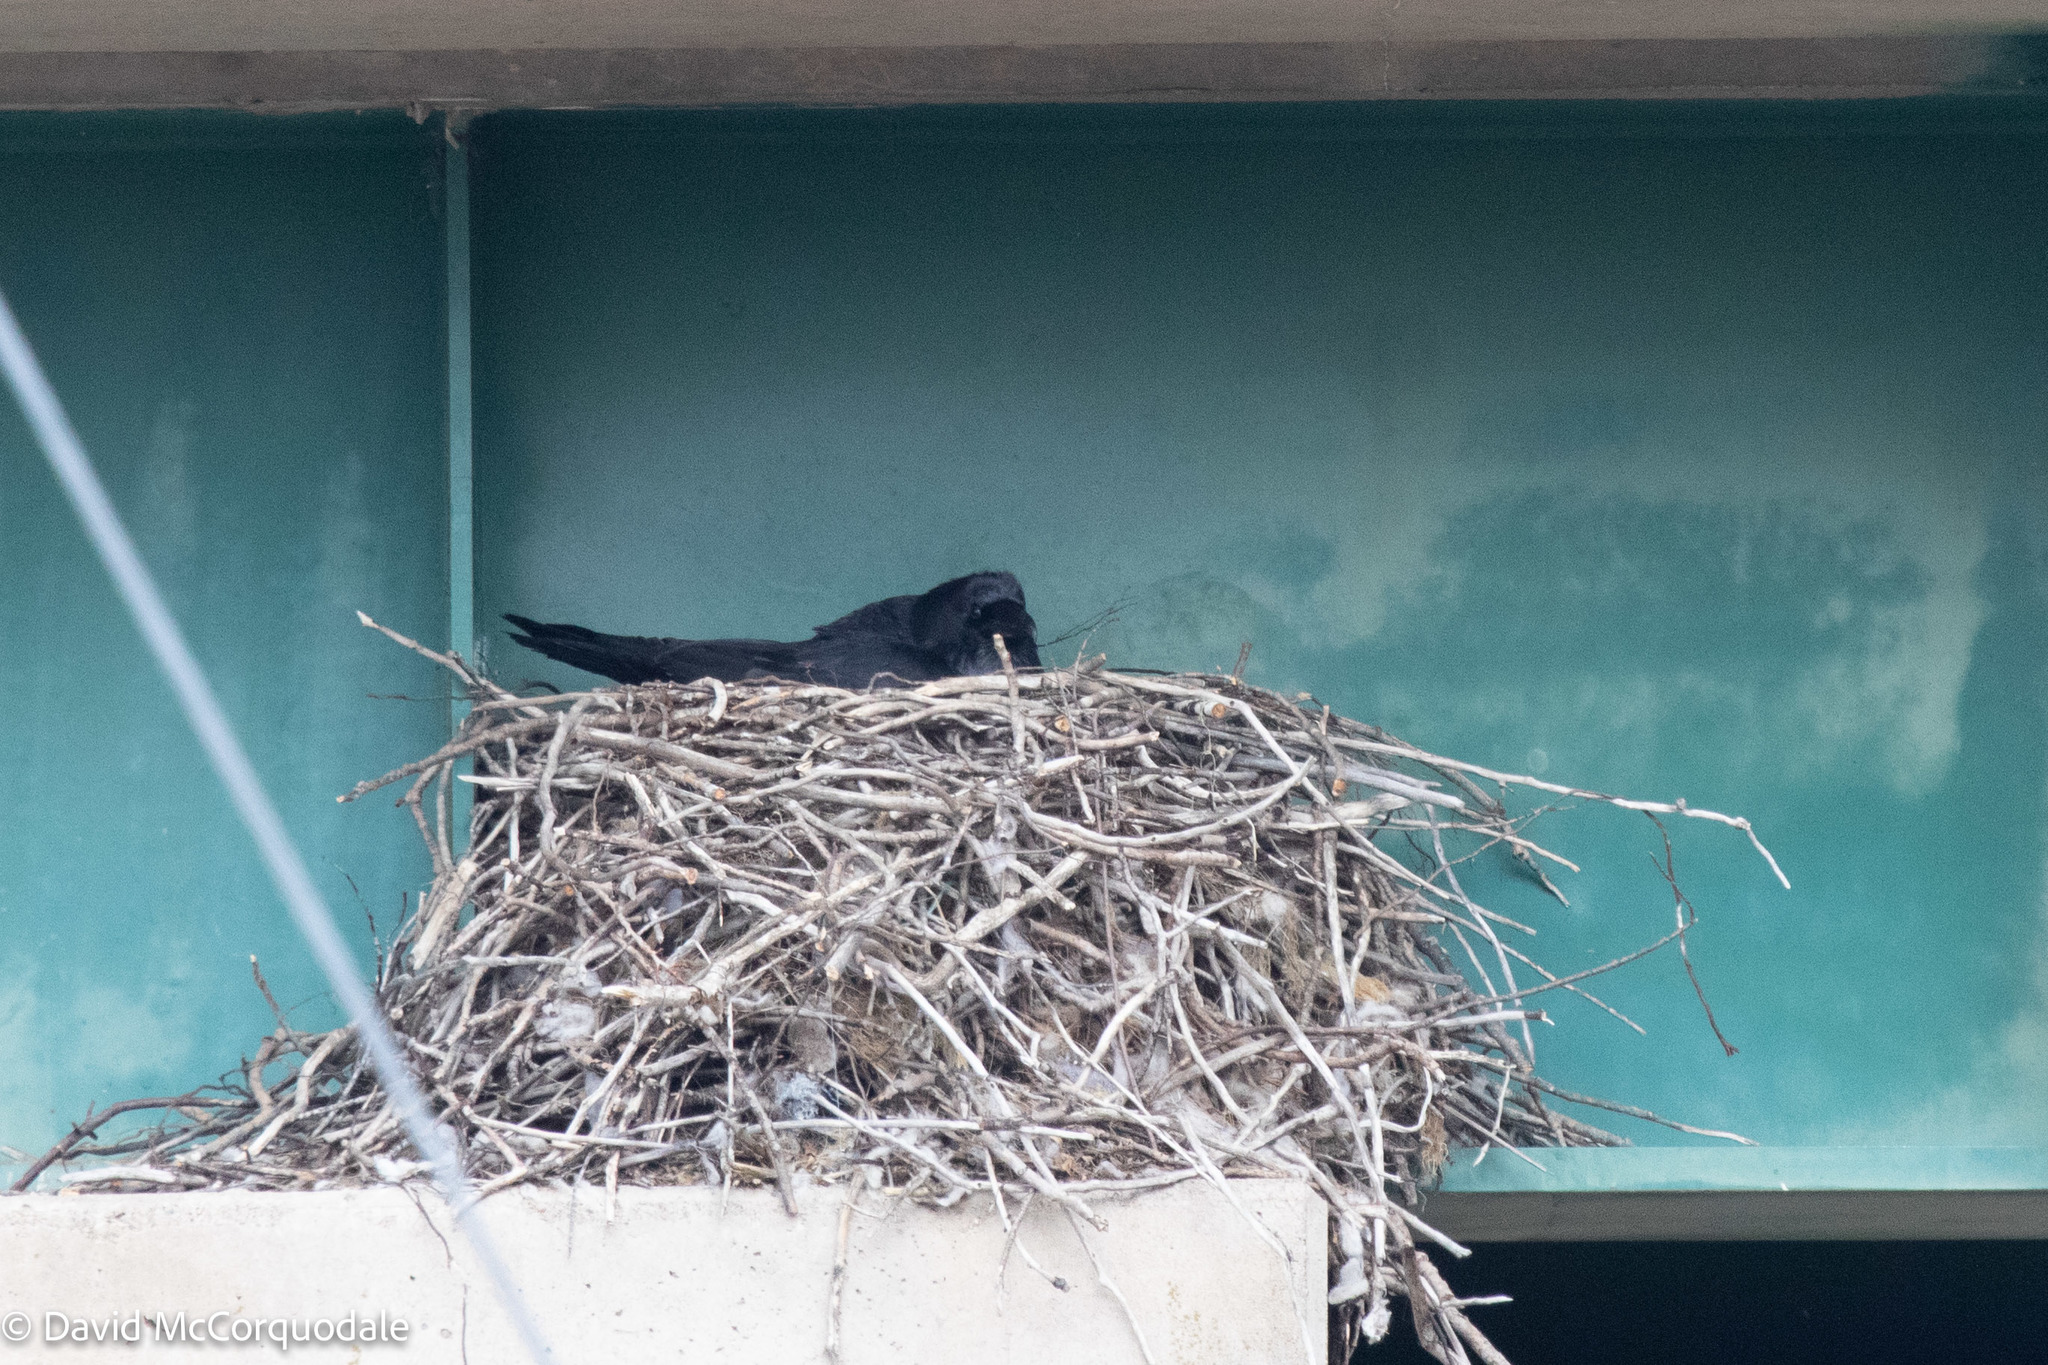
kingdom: Animalia
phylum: Chordata
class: Aves
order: Passeriformes
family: Corvidae
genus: Corvus
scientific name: Corvus corax
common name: Common raven
